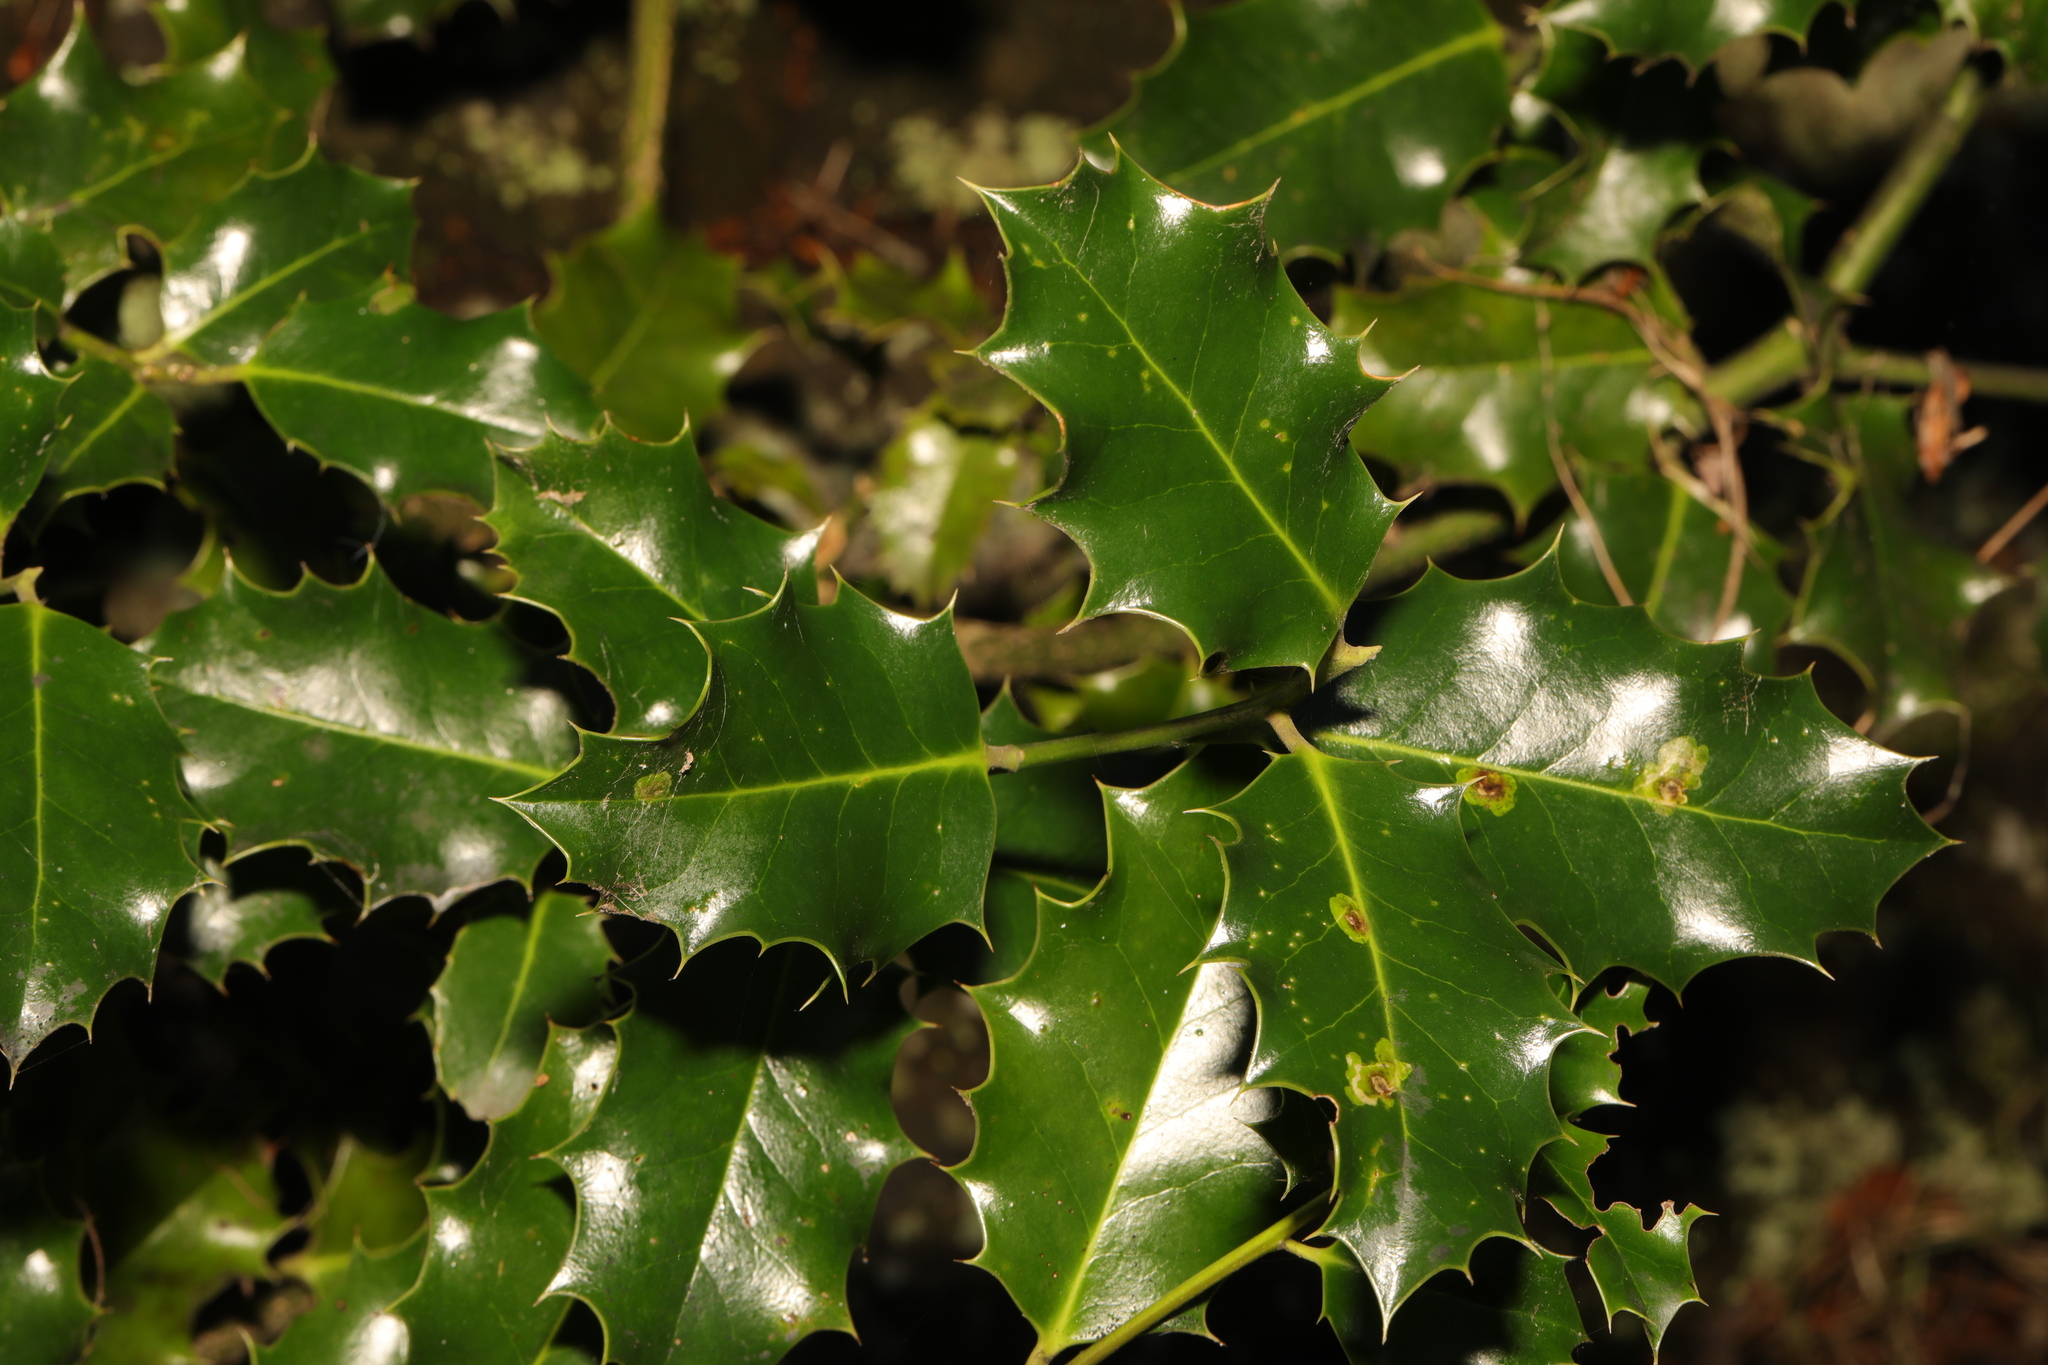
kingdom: Plantae
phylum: Tracheophyta
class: Magnoliopsida
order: Aquifoliales
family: Aquifoliaceae
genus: Ilex
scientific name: Ilex aquifolium
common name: English holly
